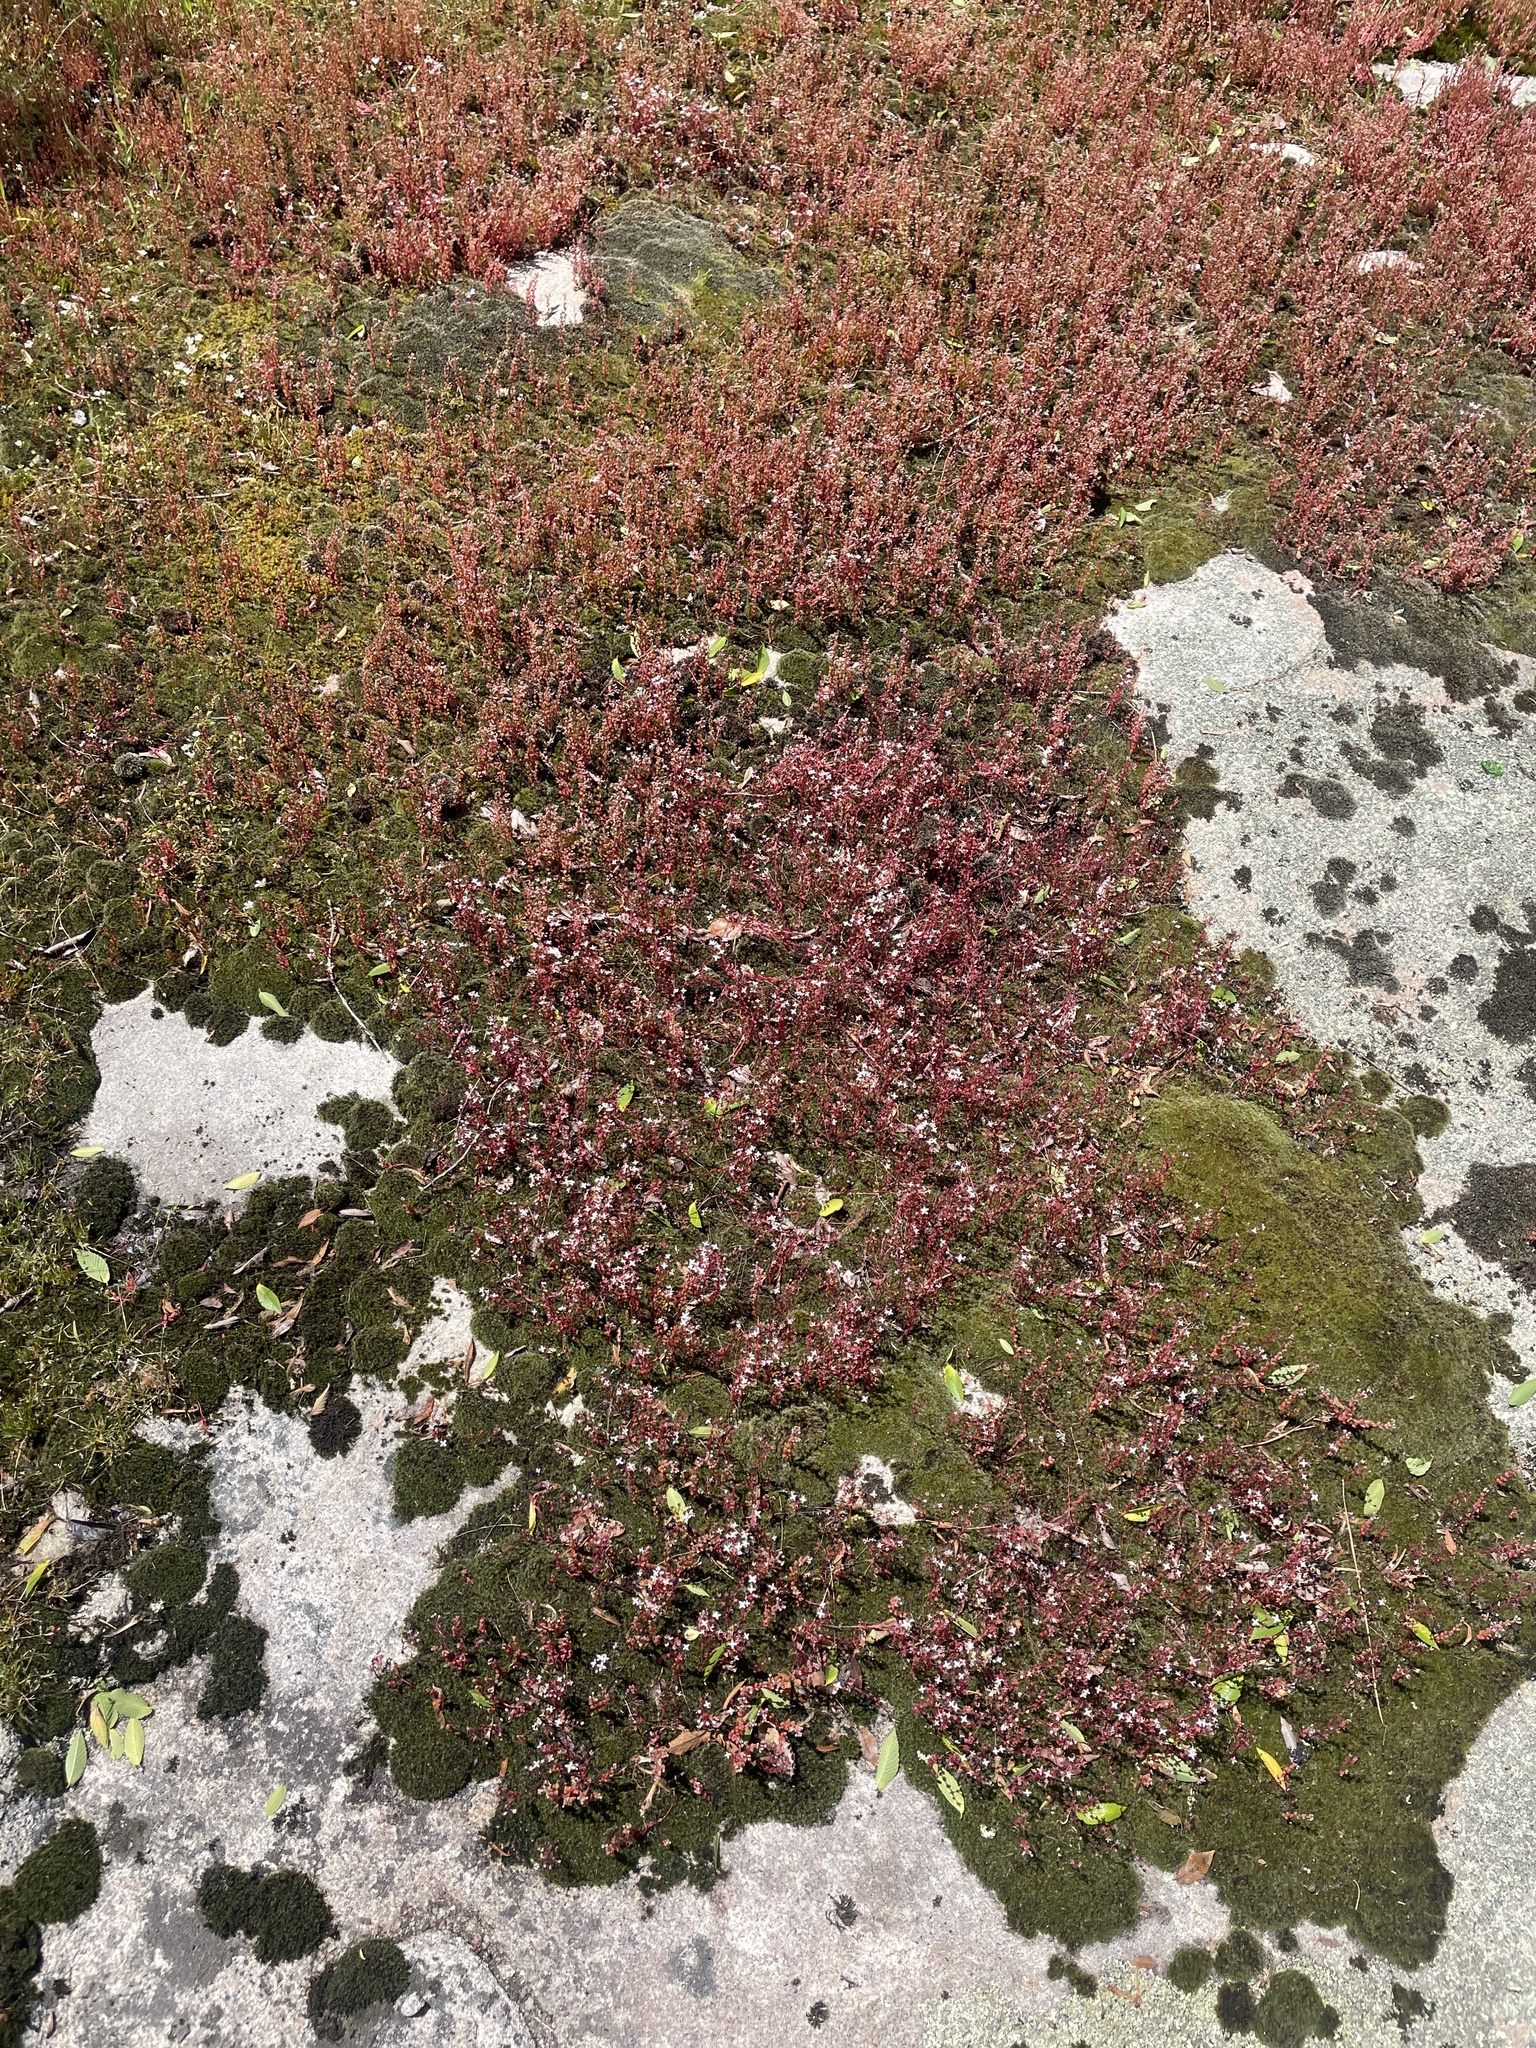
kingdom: Plantae
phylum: Tracheophyta
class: Magnoliopsida
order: Saxifragales
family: Crassulaceae
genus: Sedum
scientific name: Sedum smallii
